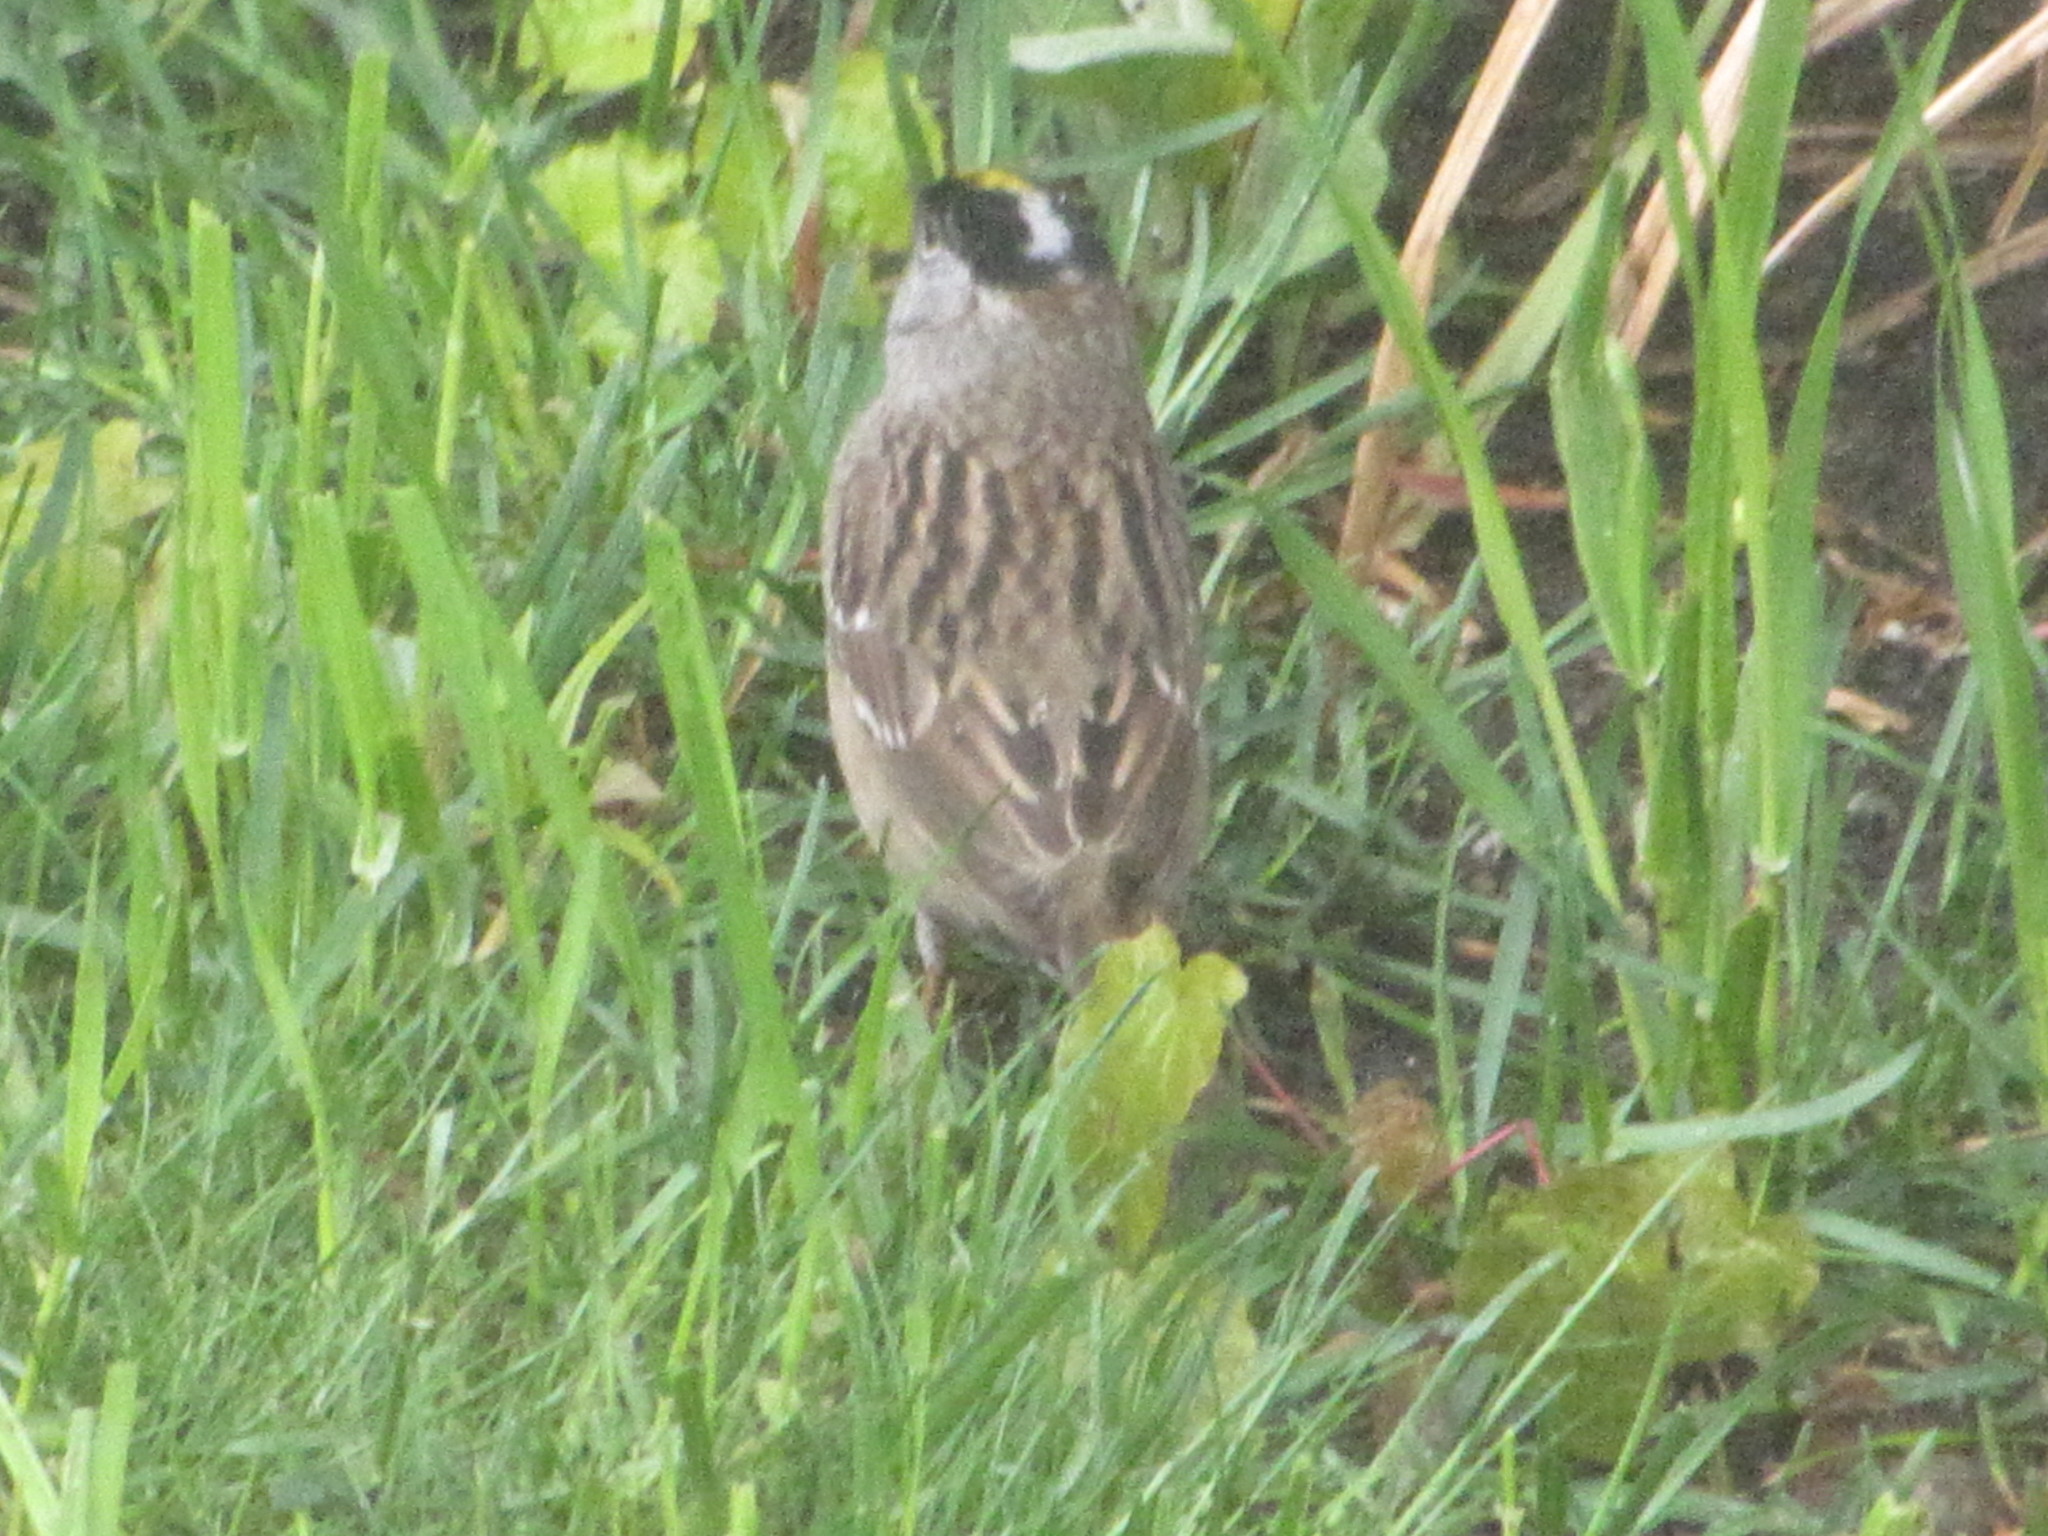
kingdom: Animalia
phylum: Chordata
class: Aves
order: Passeriformes
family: Passerellidae
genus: Zonotrichia
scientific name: Zonotrichia atricapilla
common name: Golden-crowned sparrow
